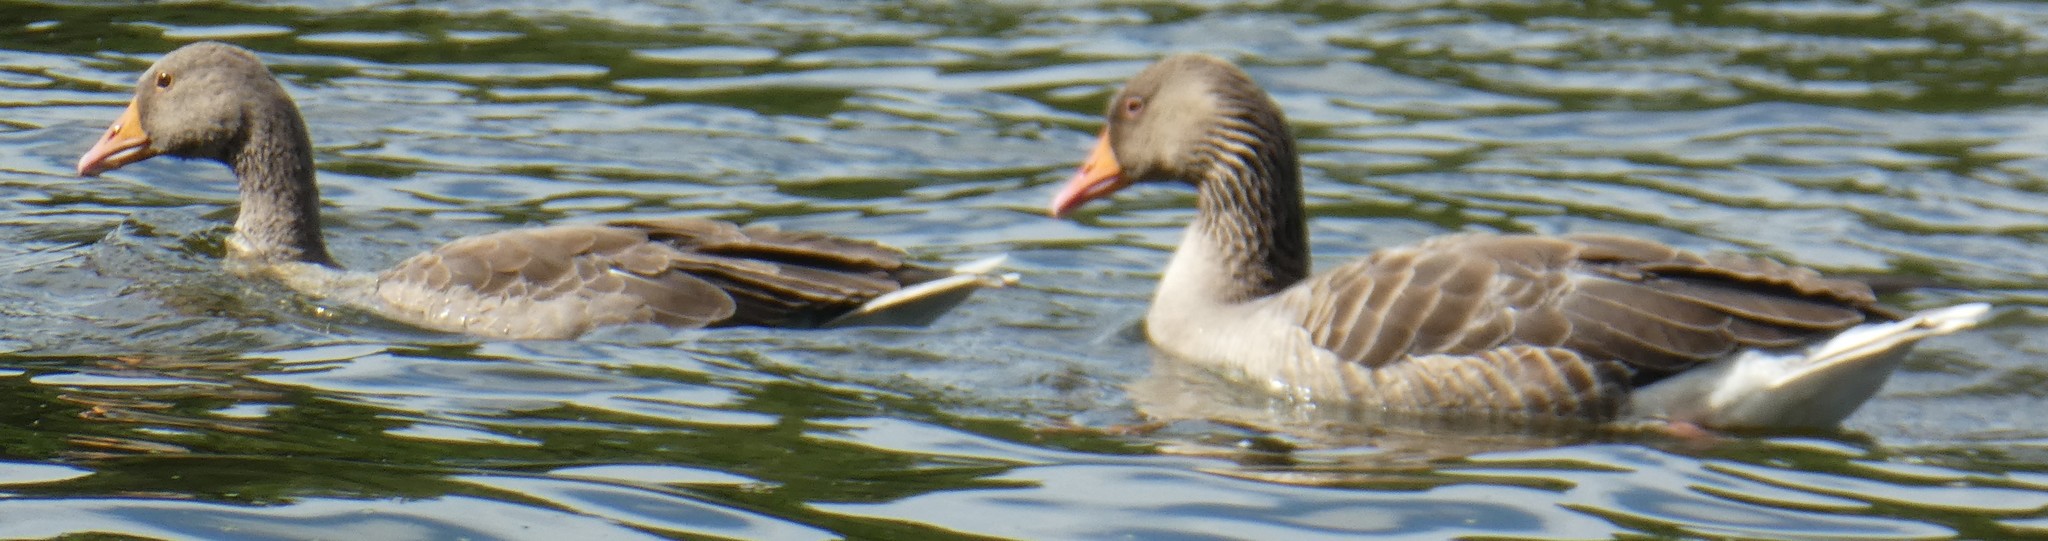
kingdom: Animalia
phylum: Chordata
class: Aves
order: Anseriformes
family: Anatidae
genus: Anser
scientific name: Anser anser
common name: Greylag goose
